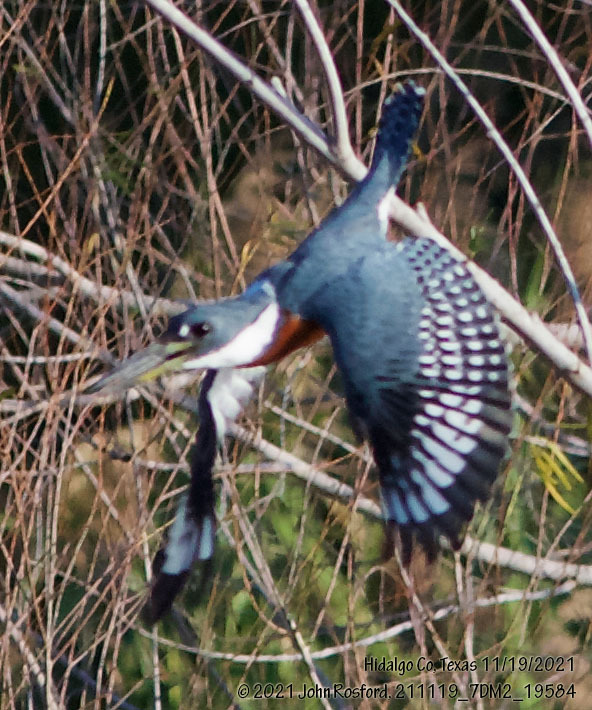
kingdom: Animalia
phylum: Chordata
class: Aves
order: Coraciiformes
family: Alcedinidae
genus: Megaceryle
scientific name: Megaceryle torquata
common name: Ringed kingfisher
